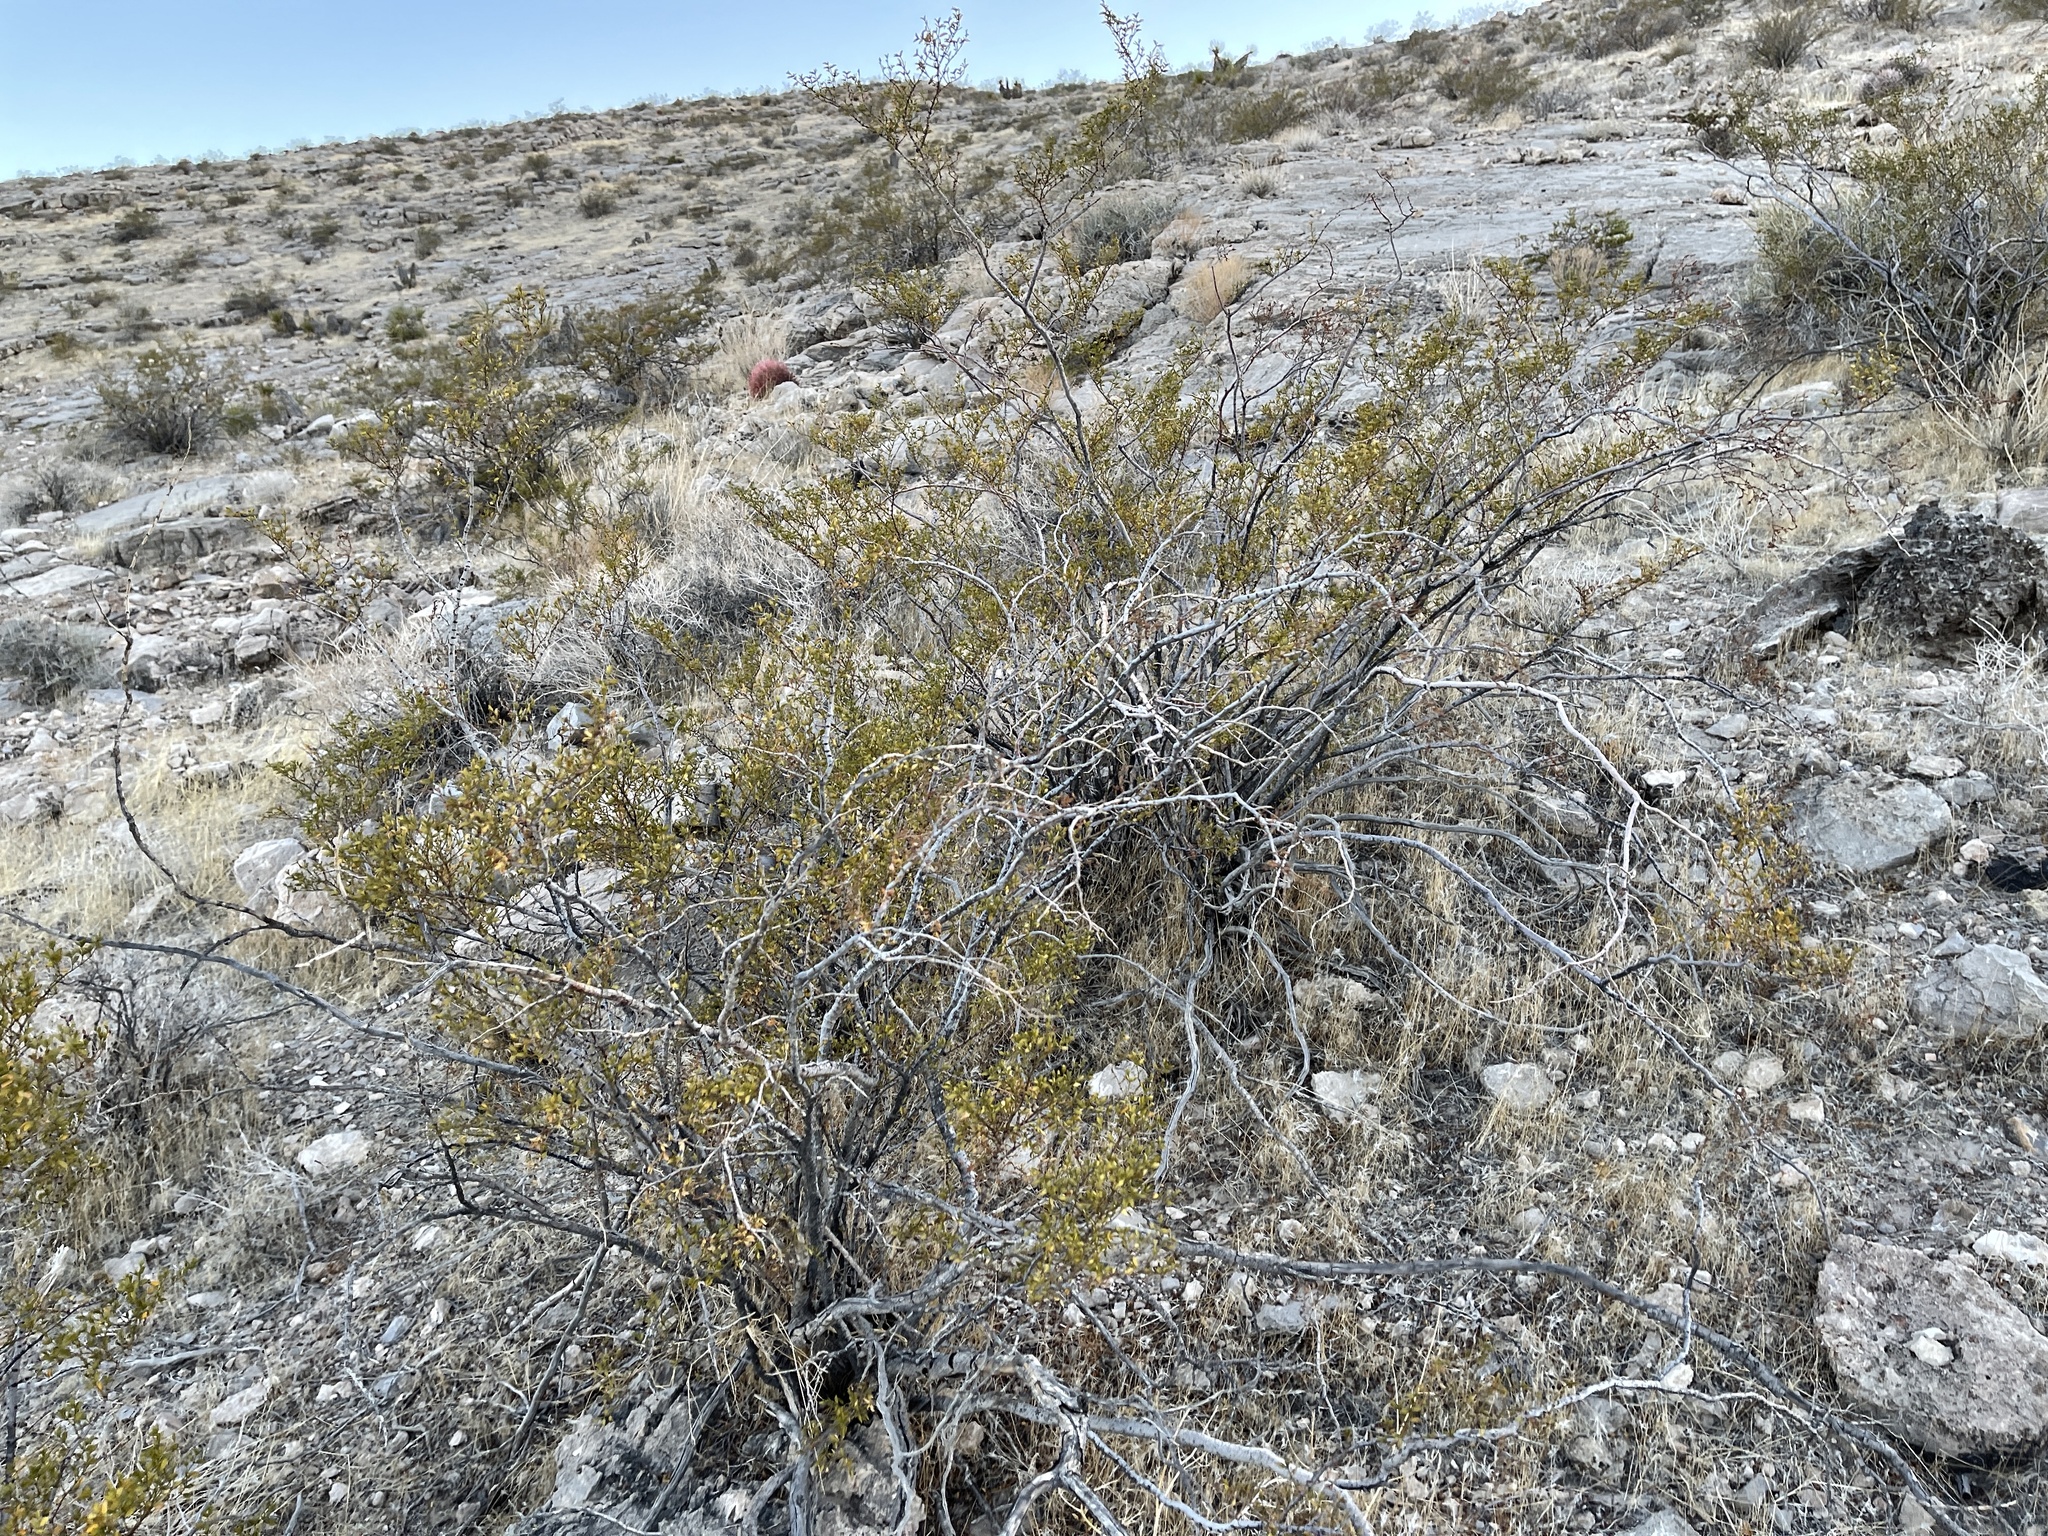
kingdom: Plantae
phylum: Tracheophyta
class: Magnoliopsida
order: Zygophyllales
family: Zygophyllaceae
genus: Larrea
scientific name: Larrea tridentata
